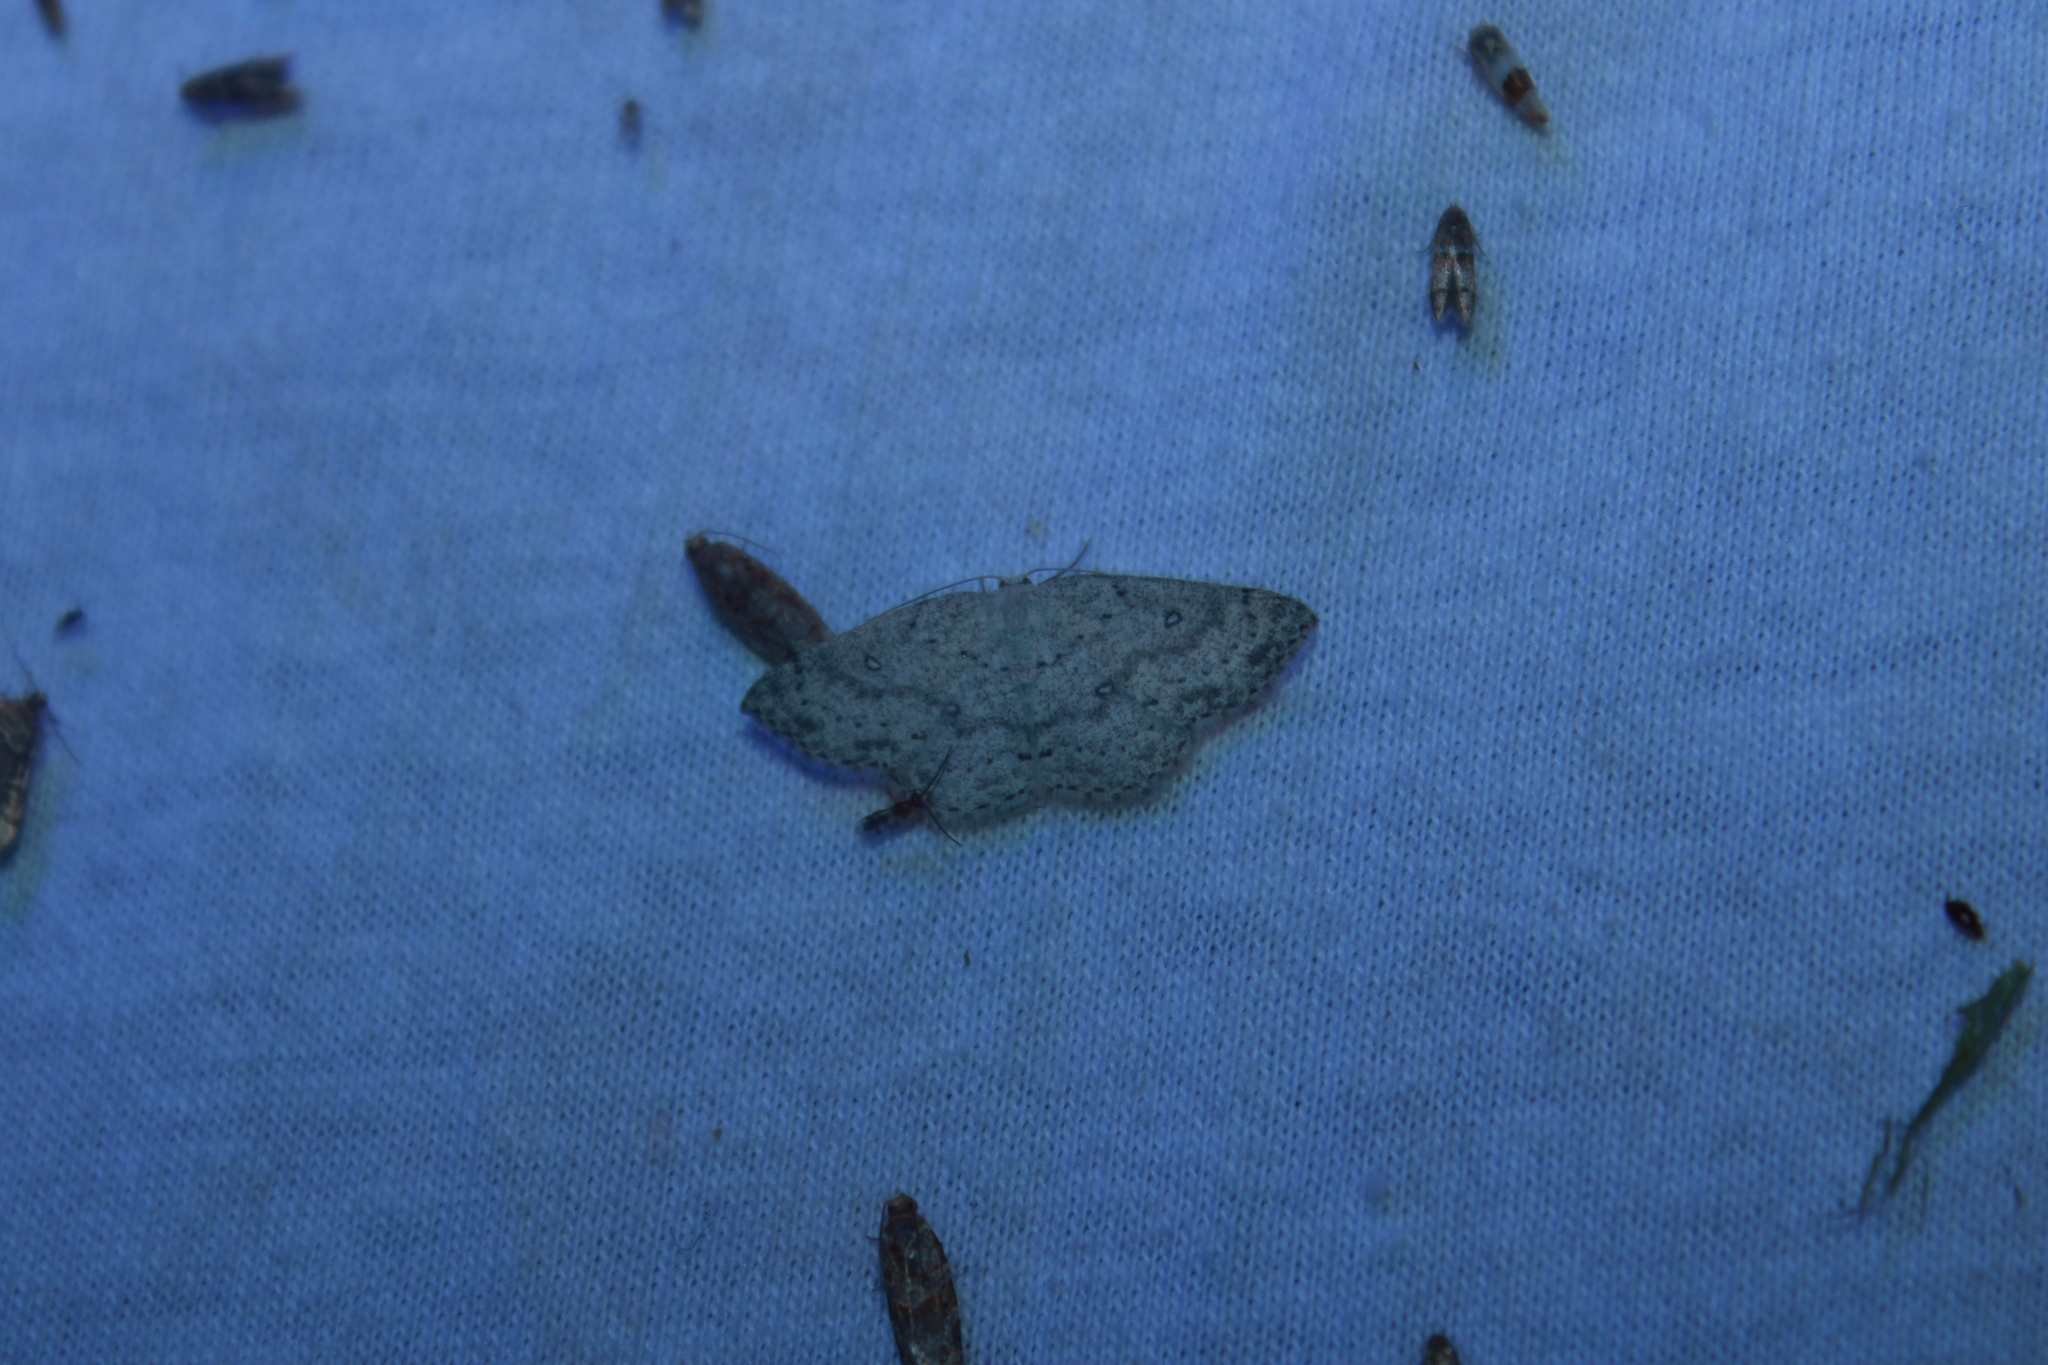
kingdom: Animalia
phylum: Arthropoda
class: Insecta
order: Lepidoptera
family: Geometridae
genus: Cyclophora
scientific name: Cyclophora pendulinaria
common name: Sweet fern geometer
